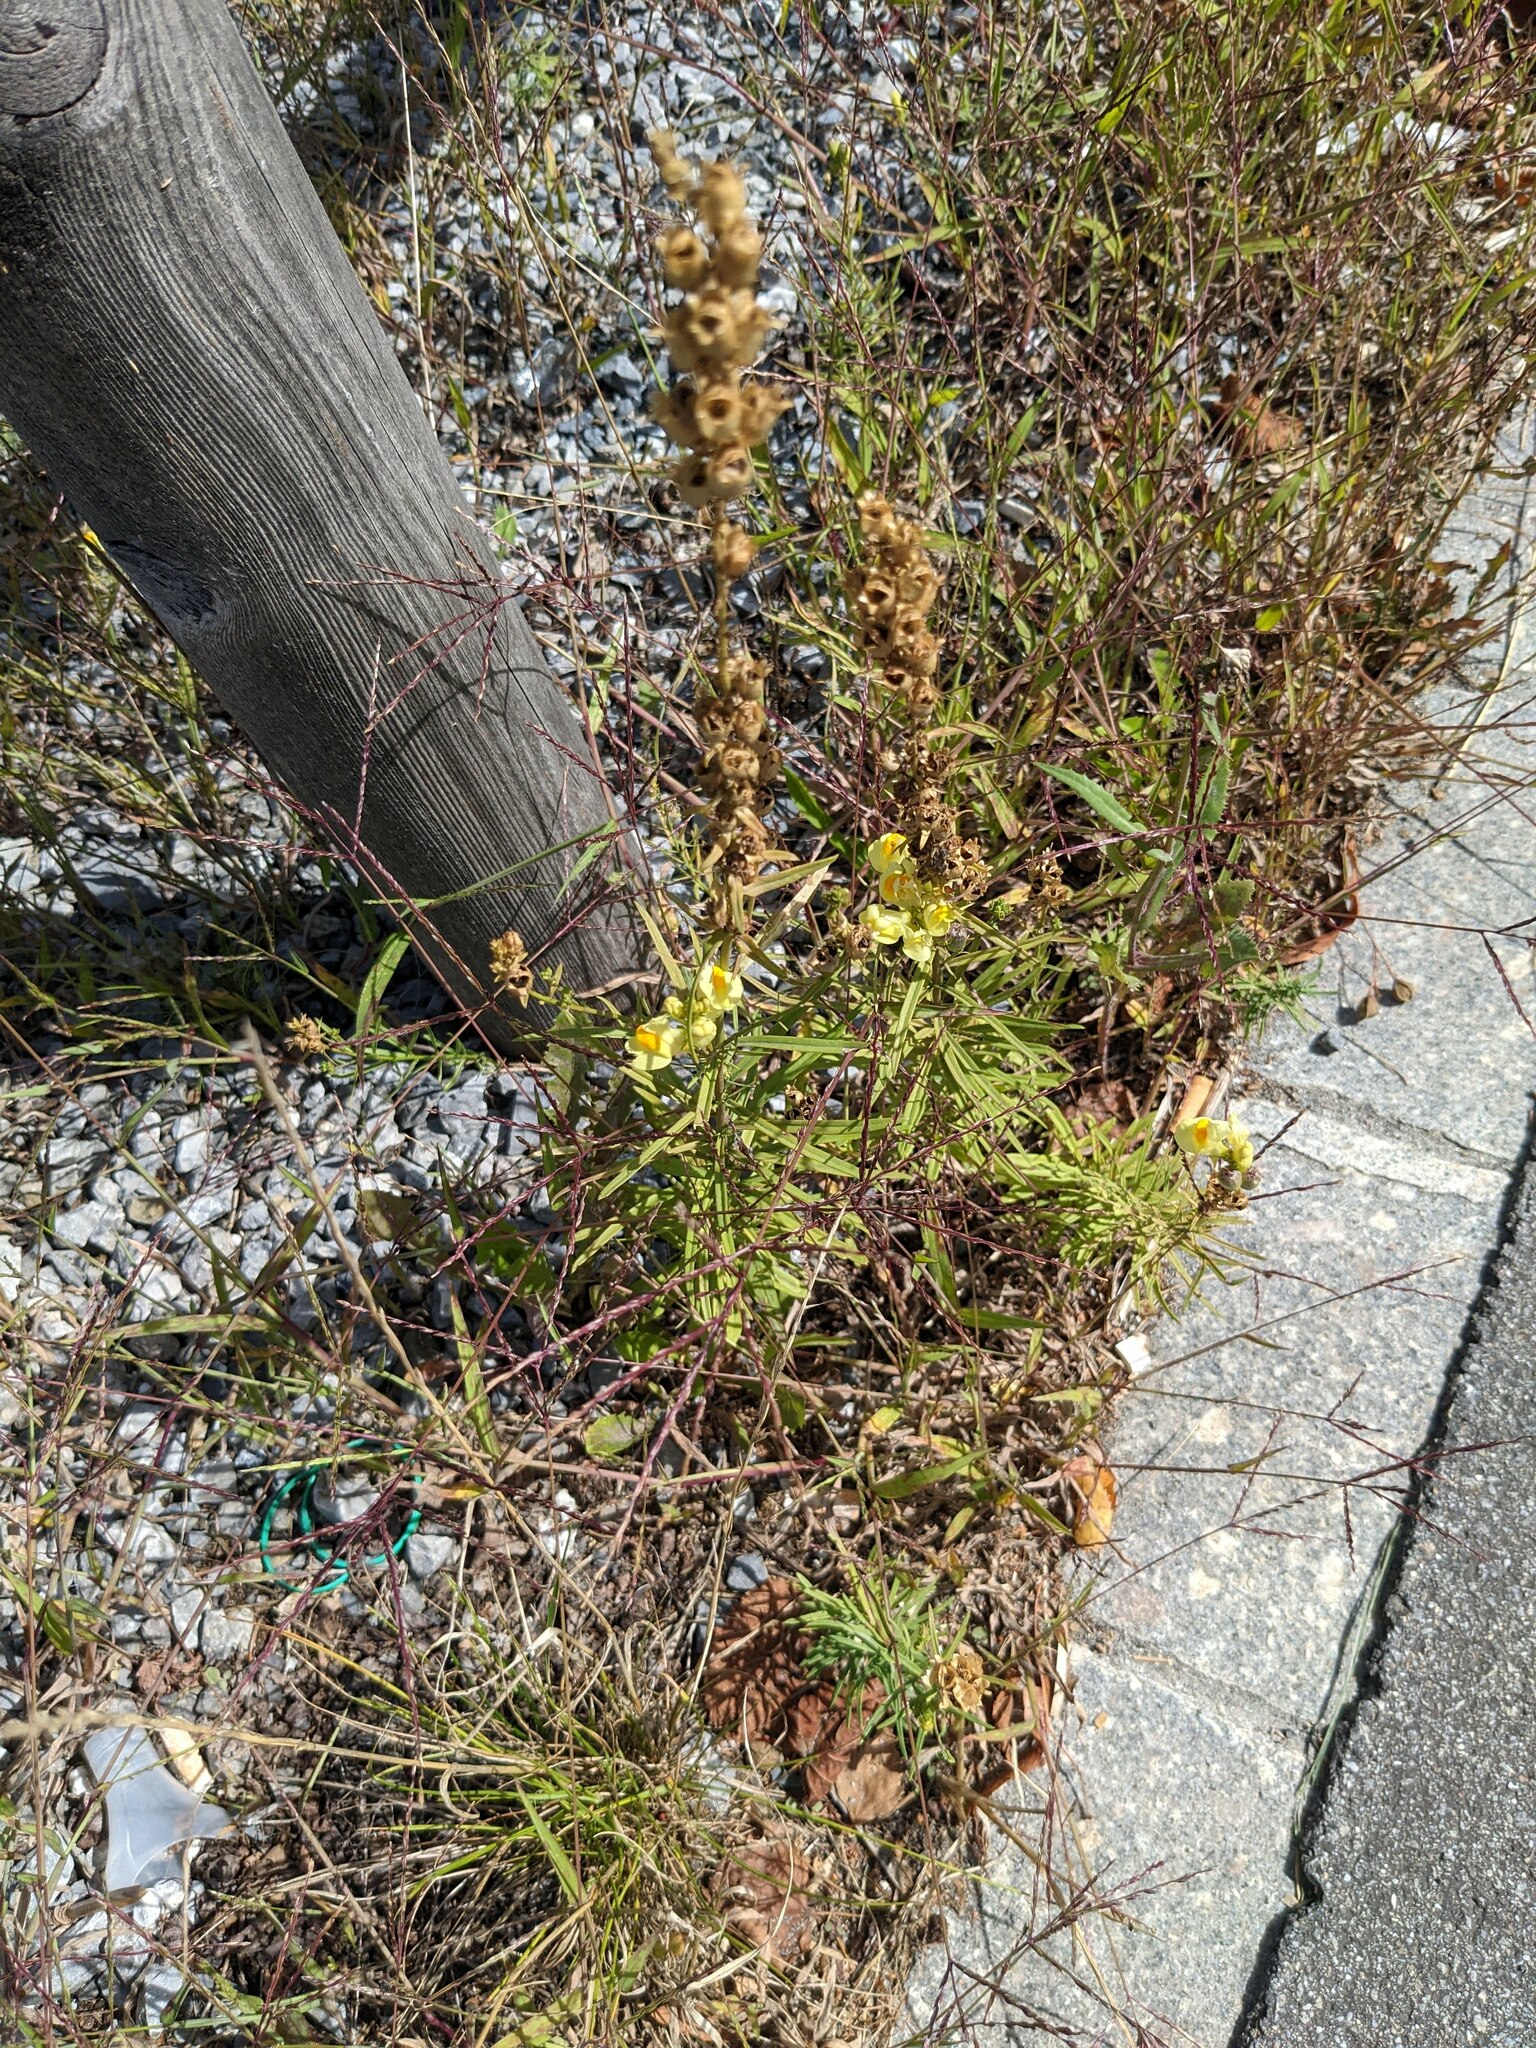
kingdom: Plantae
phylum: Tracheophyta
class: Magnoliopsida
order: Lamiales
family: Plantaginaceae
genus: Linaria
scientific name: Linaria vulgaris
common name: Butter and eggs
